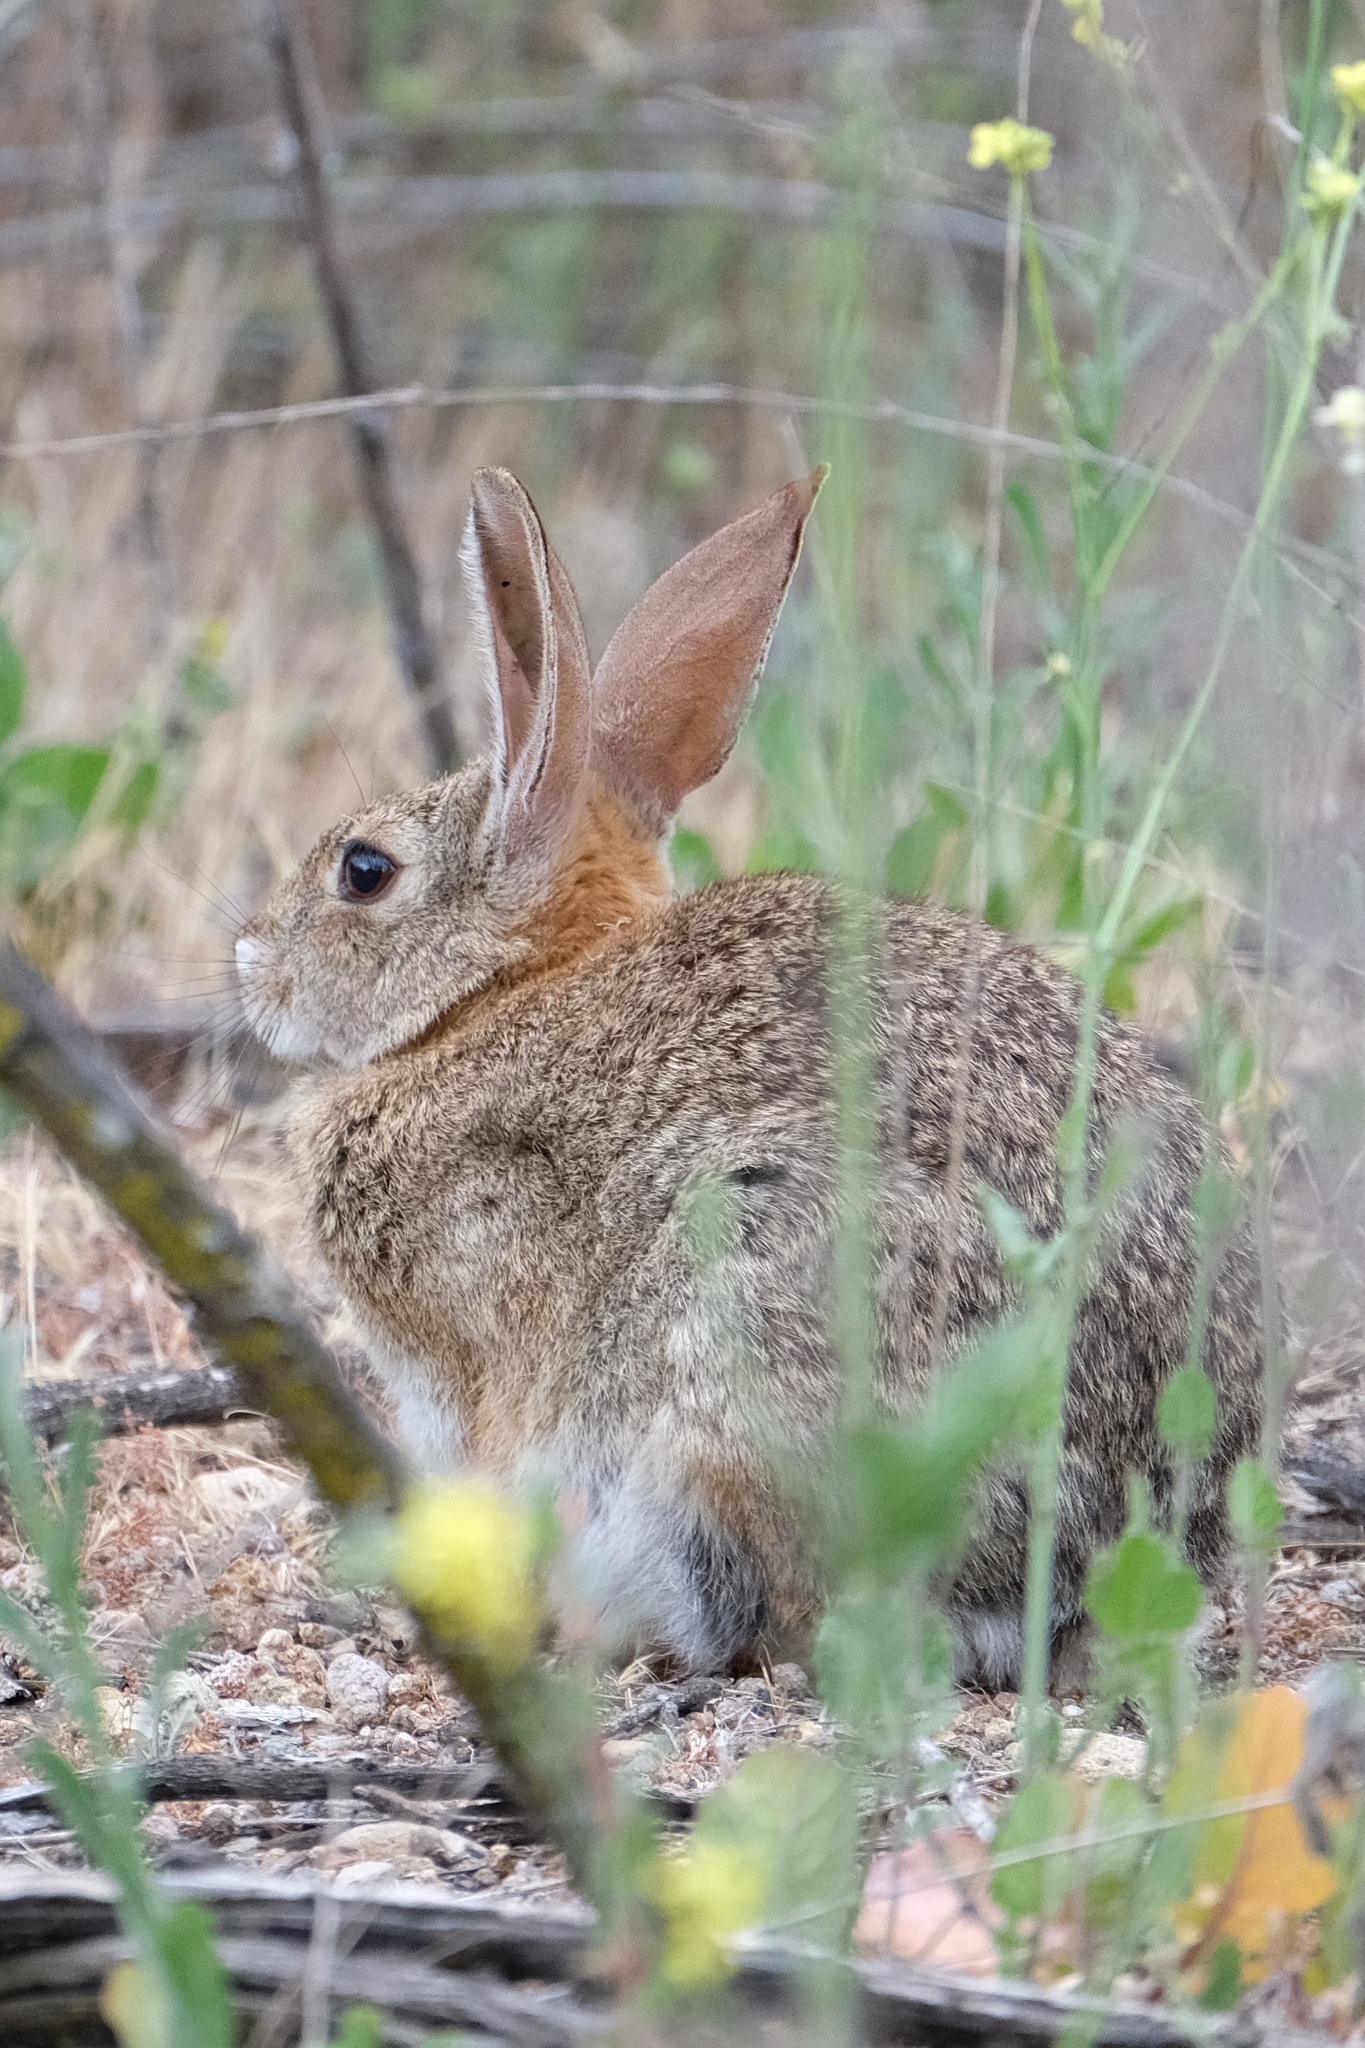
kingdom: Animalia
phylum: Chordata
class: Mammalia
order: Lagomorpha
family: Leporidae
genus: Sylvilagus
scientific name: Sylvilagus audubonii
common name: Desert cottontail
